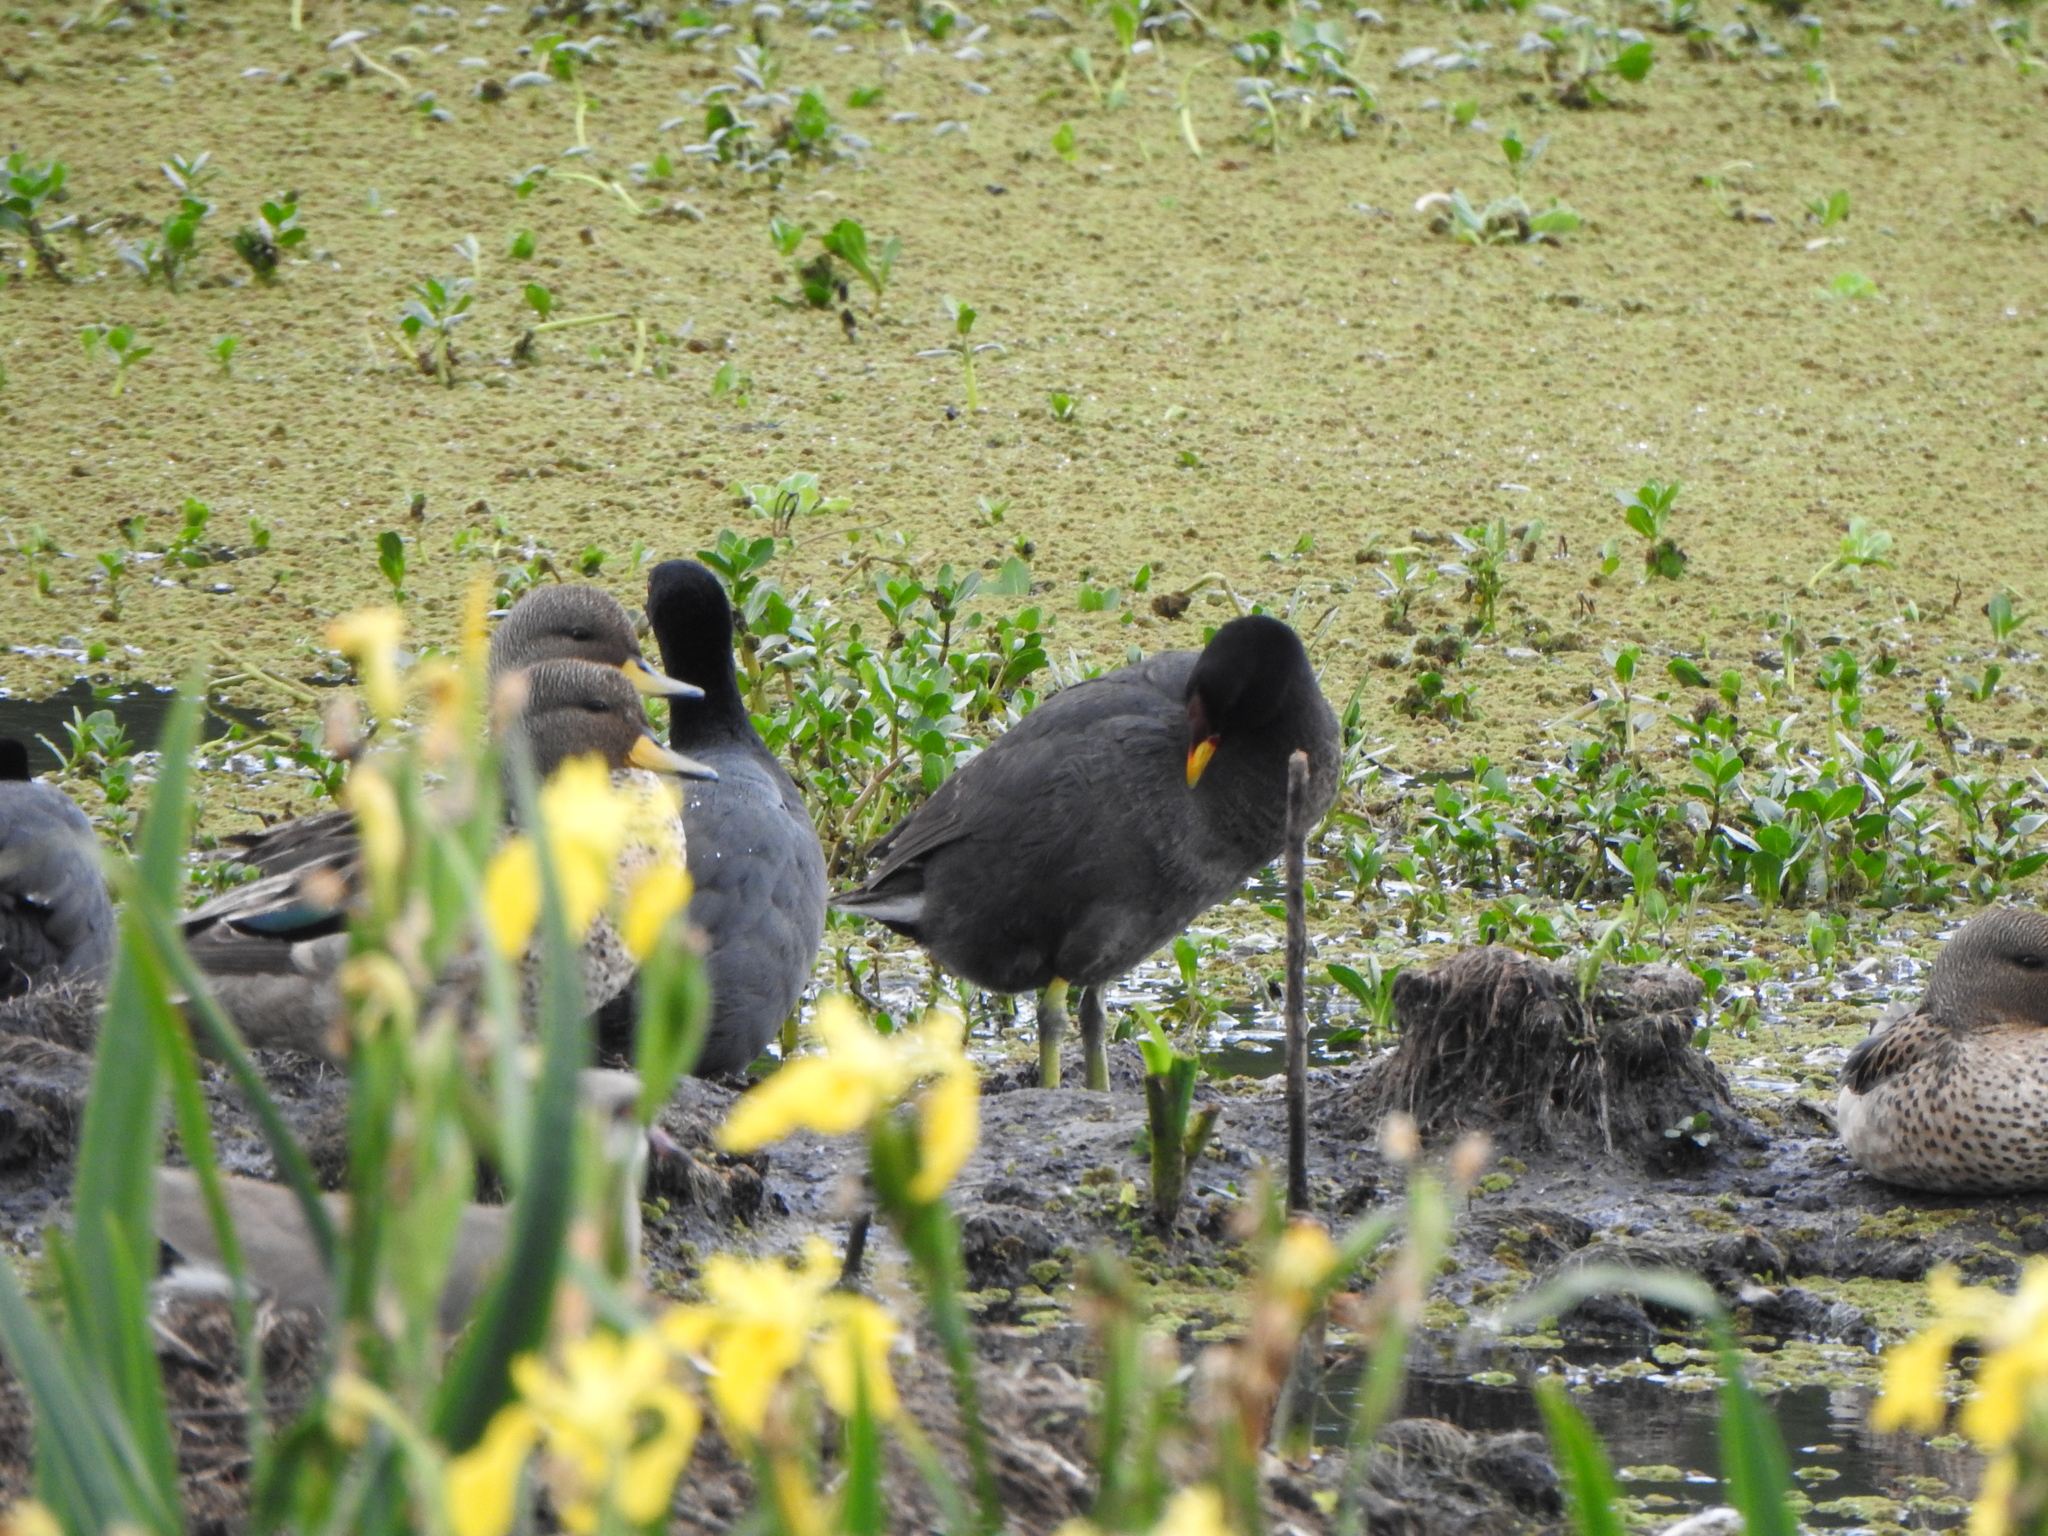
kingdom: Animalia
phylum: Chordata
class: Aves
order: Gruiformes
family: Rallidae
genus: Fulica
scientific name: Fulica rufifrons
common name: Red-fronted coot
